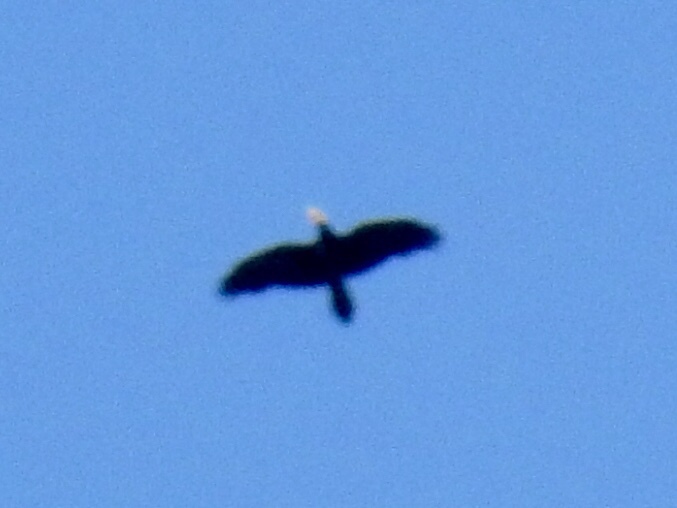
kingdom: Animalia
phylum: Chordata
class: Aves
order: Passeriformes
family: Corvidae
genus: Corvus
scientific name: Corvus corax
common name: Common raven
